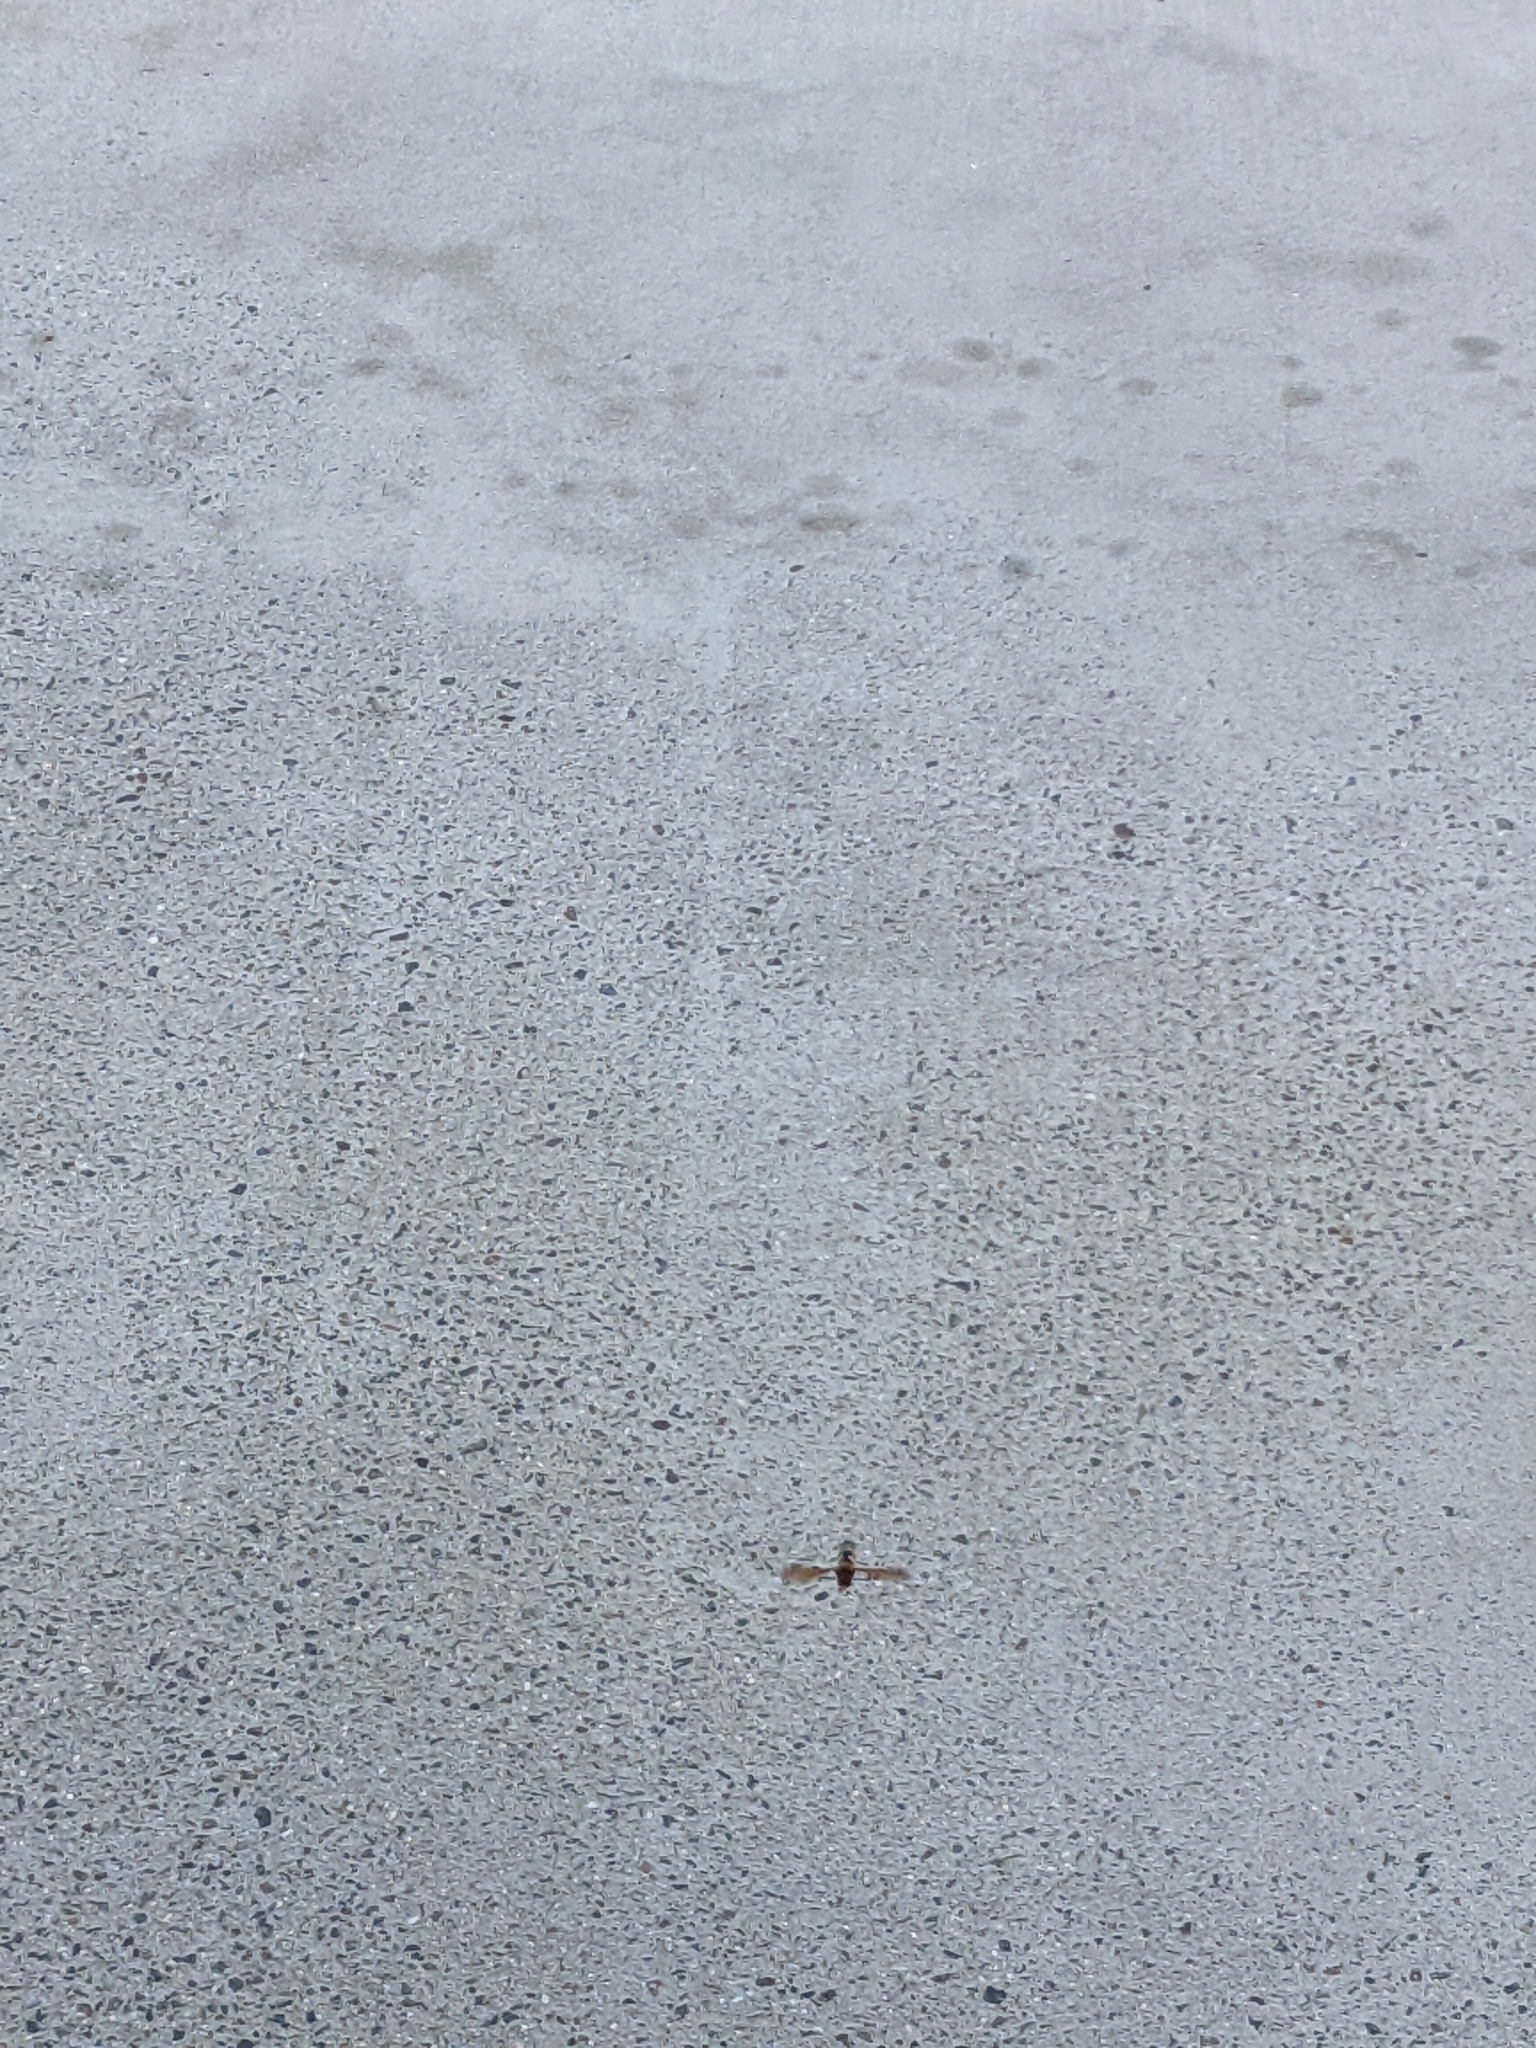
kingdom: Animalia
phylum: Arthropoda
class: Insecta
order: Hymenoptera
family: Crabronidae
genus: Sphecius
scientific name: Sphecius speciosus
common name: Cicada killer
